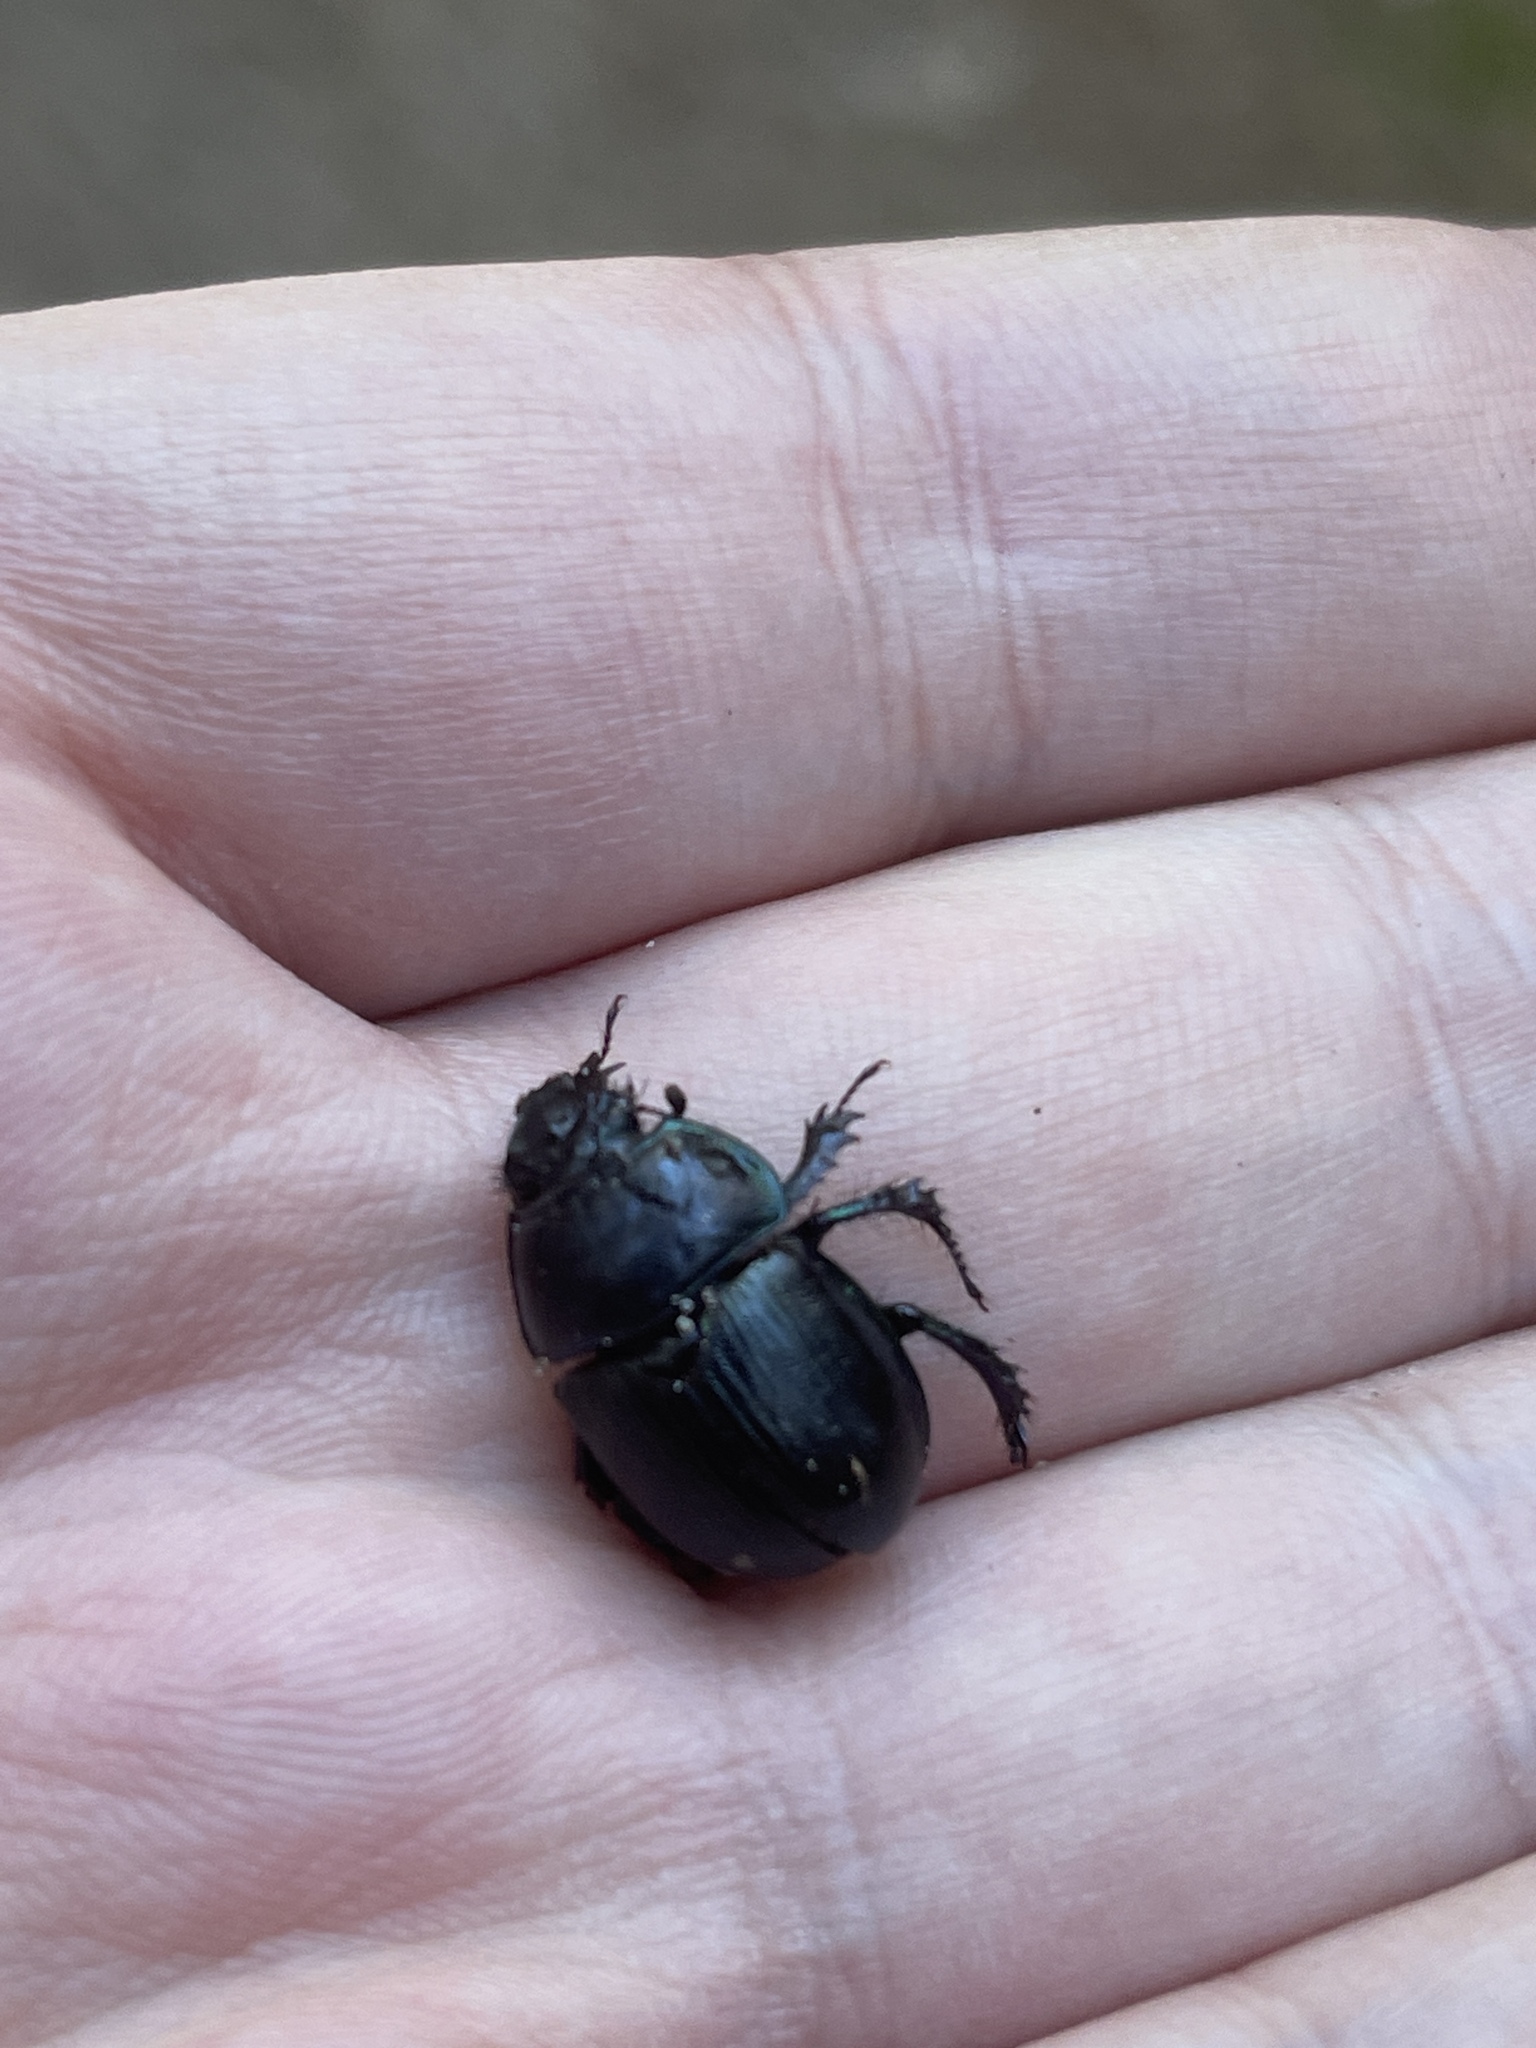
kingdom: Animalia
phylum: Arthropoda
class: Insecta
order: Coleoptera
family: Geotrupidae
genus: Anoplotrupes
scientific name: Anoplotrupes stercorosus
